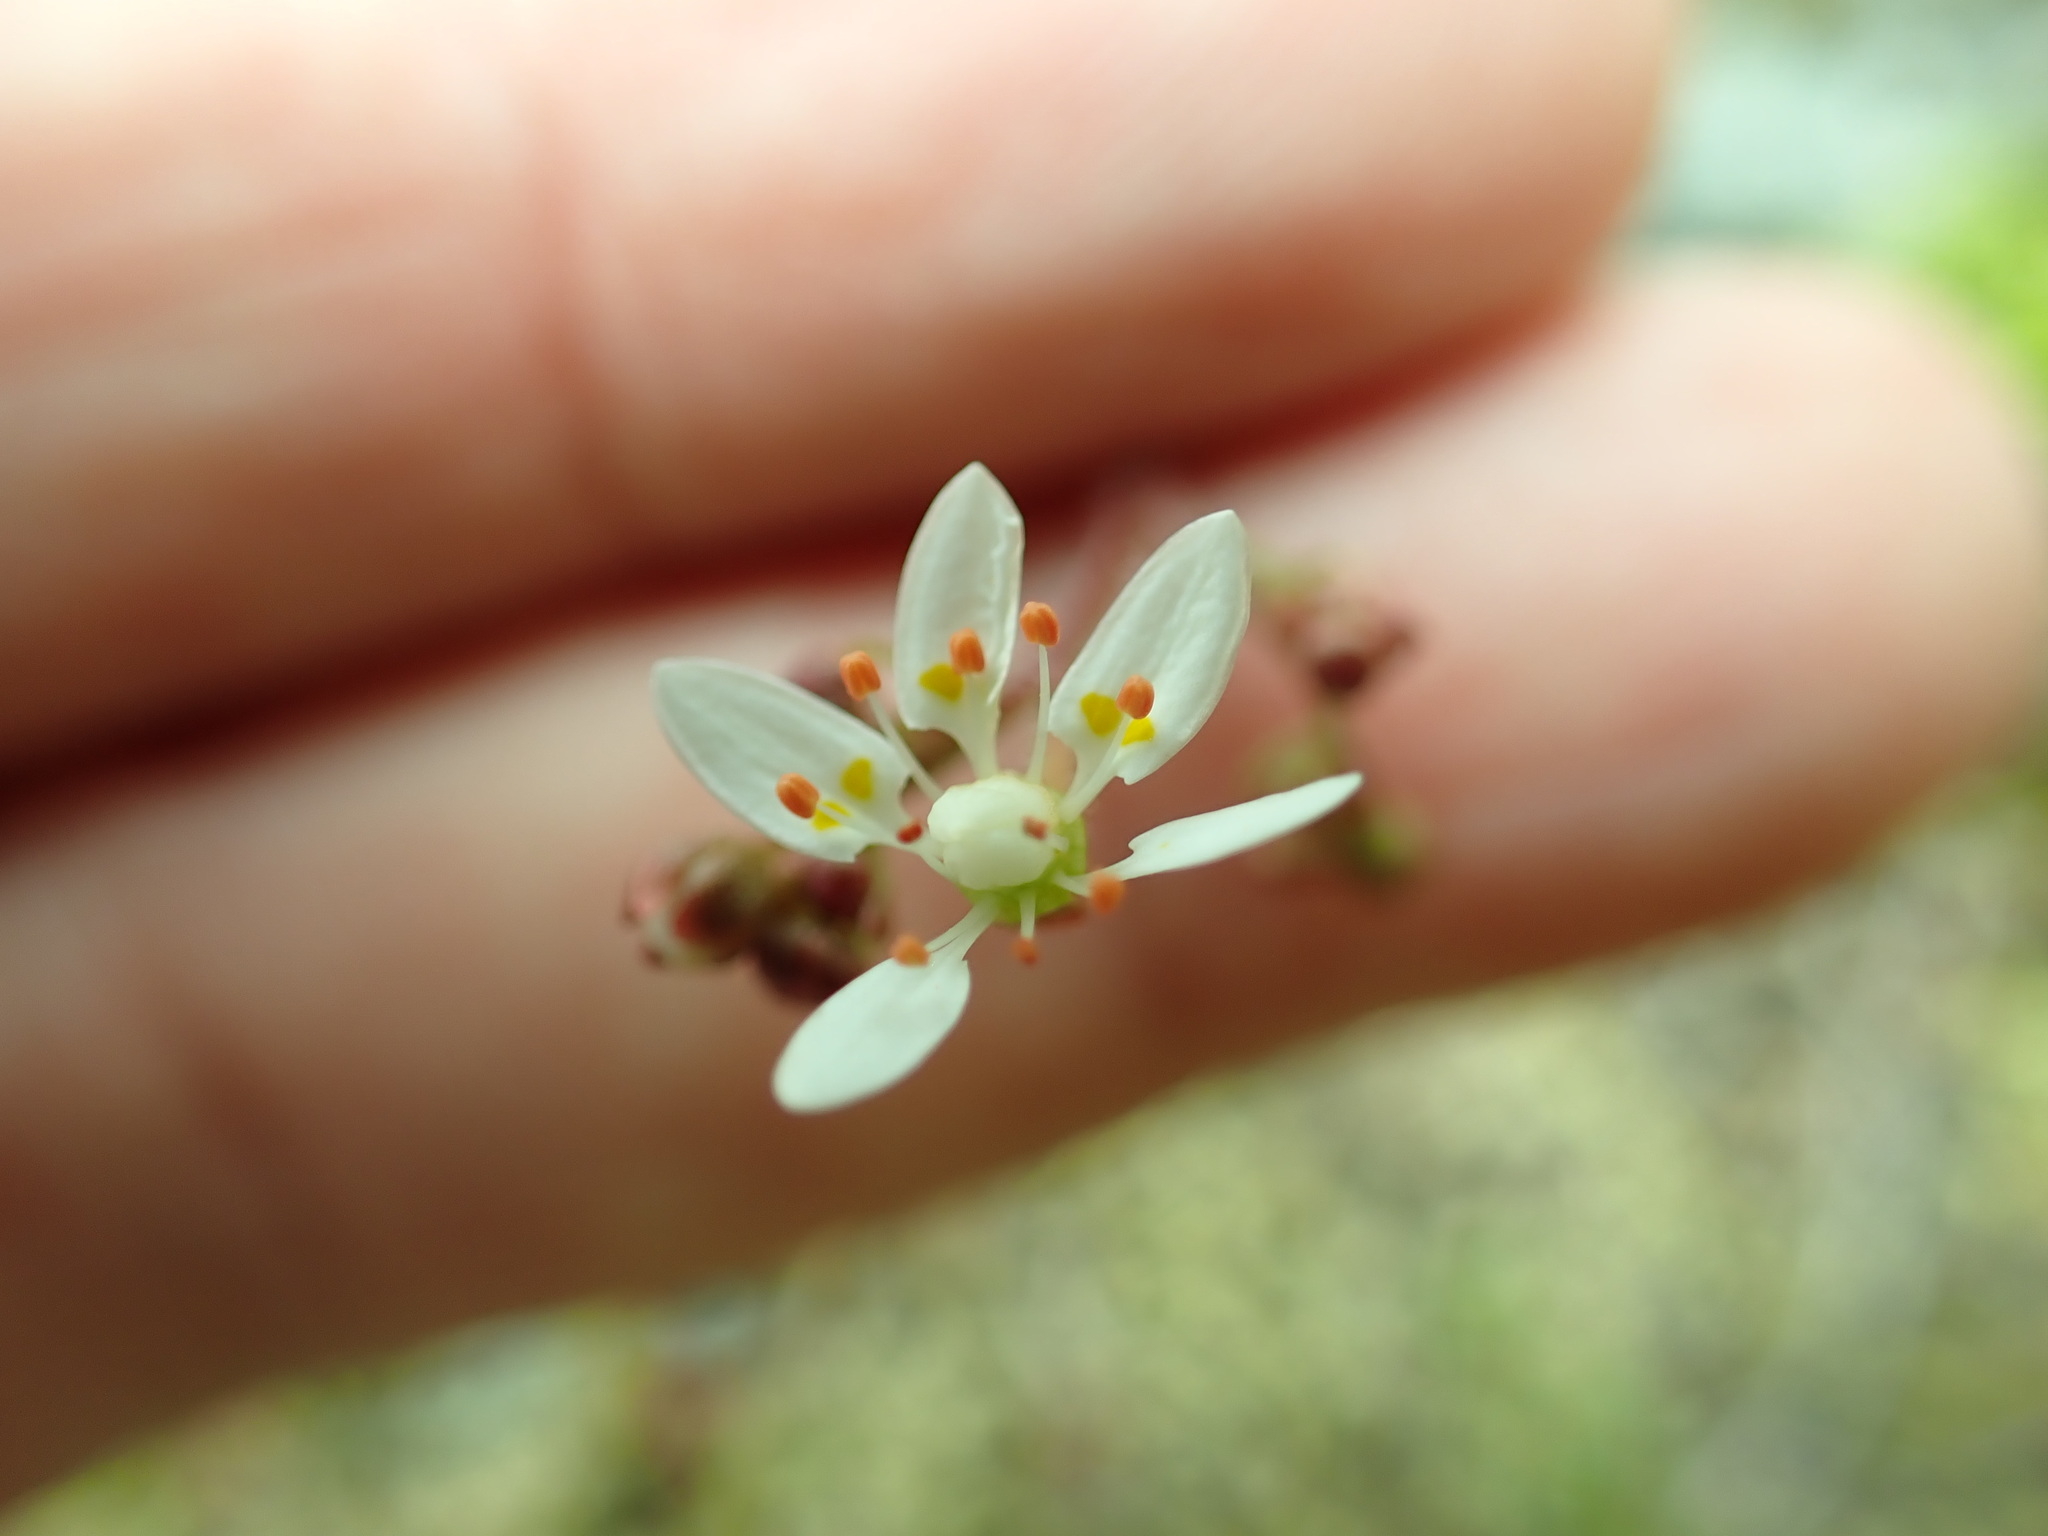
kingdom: Plantae
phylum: Tracheophyta
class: Magnoliopsida
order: Saxifragales
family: Saxifragaceae
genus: Micranthes
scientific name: Micranthes ferruginea
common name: Rusty saxifrage
